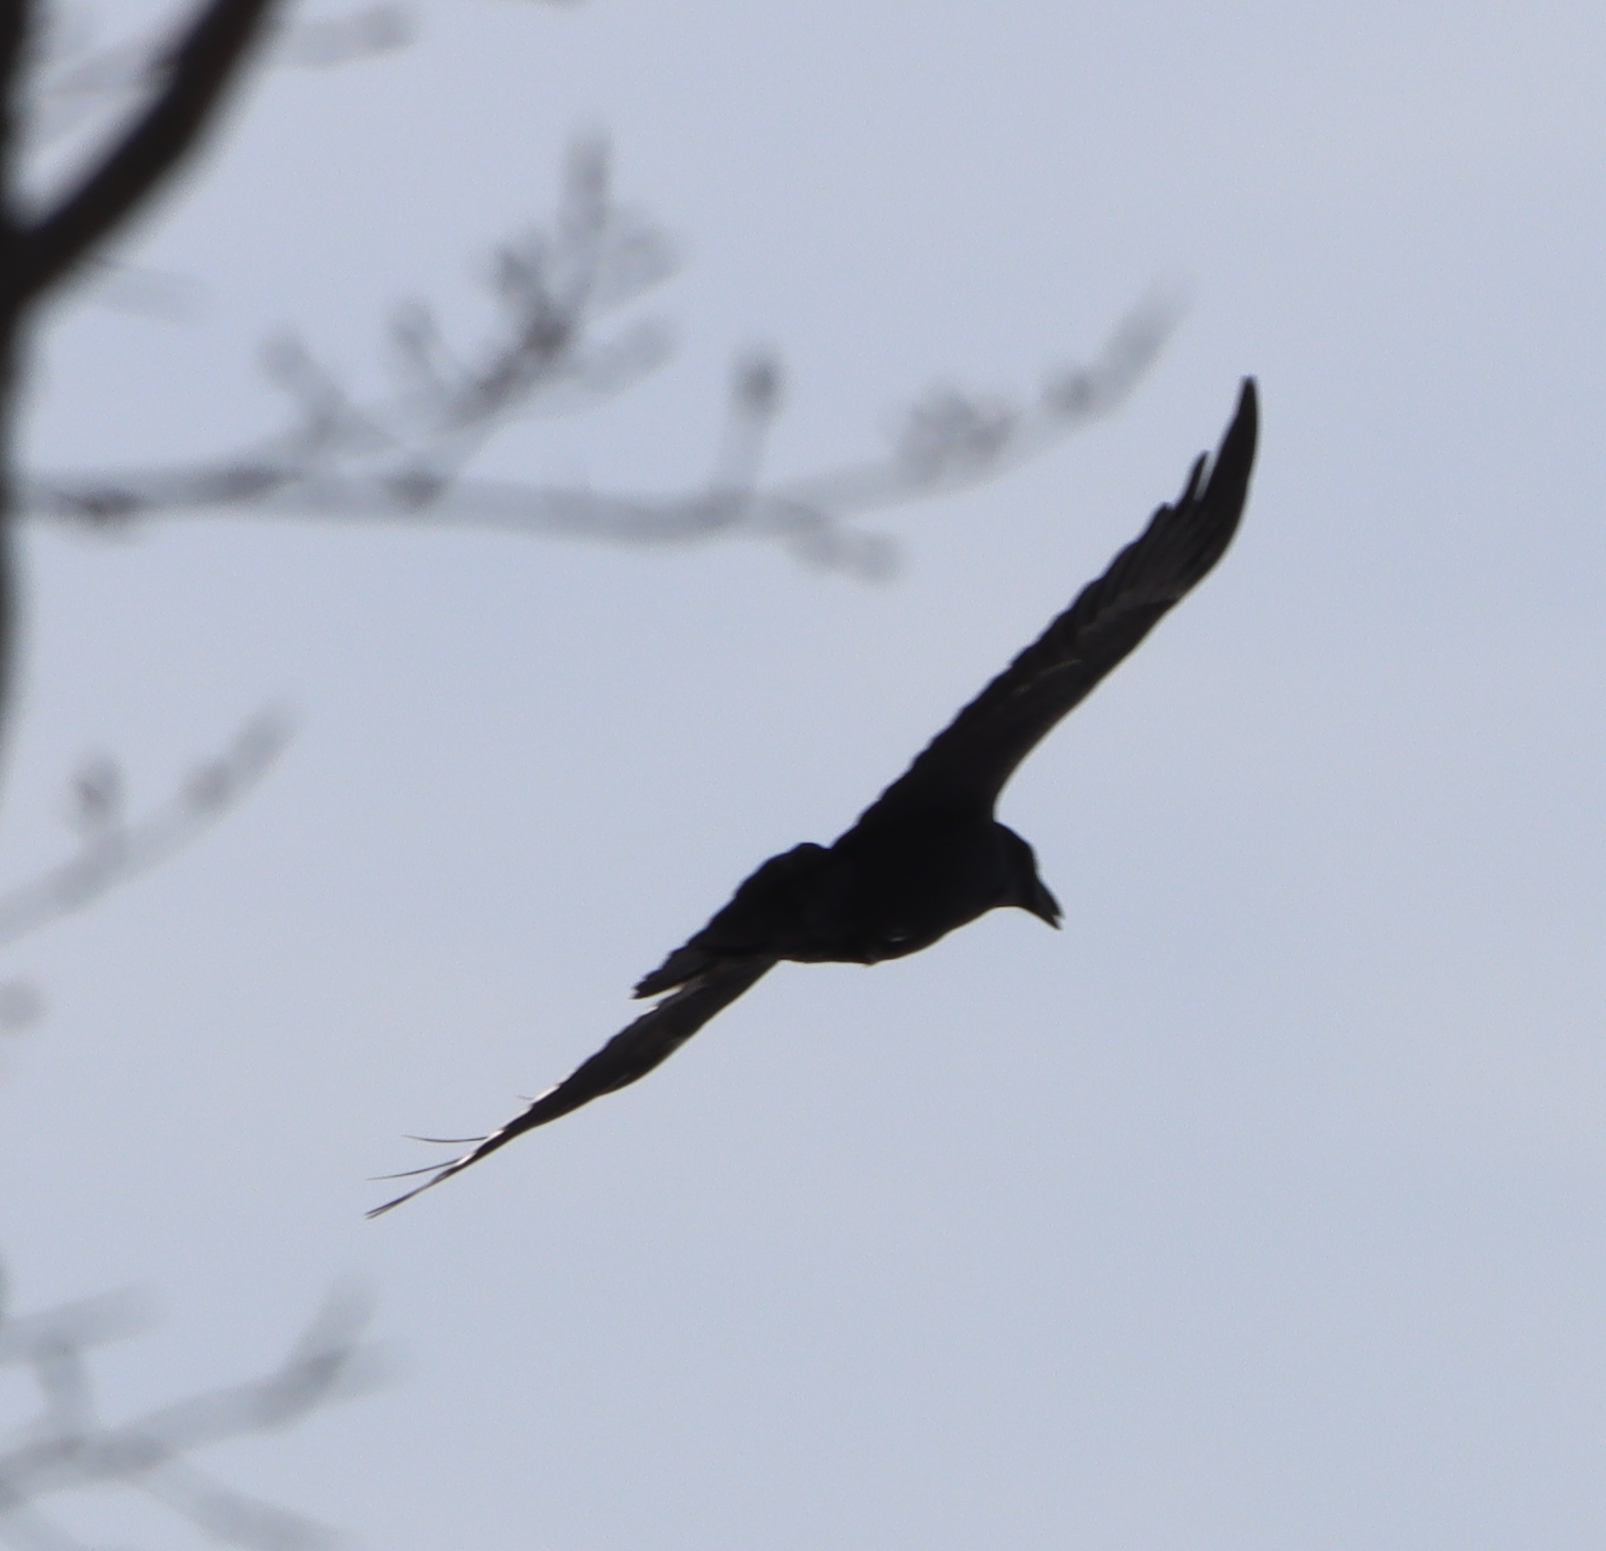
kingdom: Animalia
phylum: Chordata
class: Aves
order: Passeriformes
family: Corvidae
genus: Corvus
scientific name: Corvus corax
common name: Common raven
